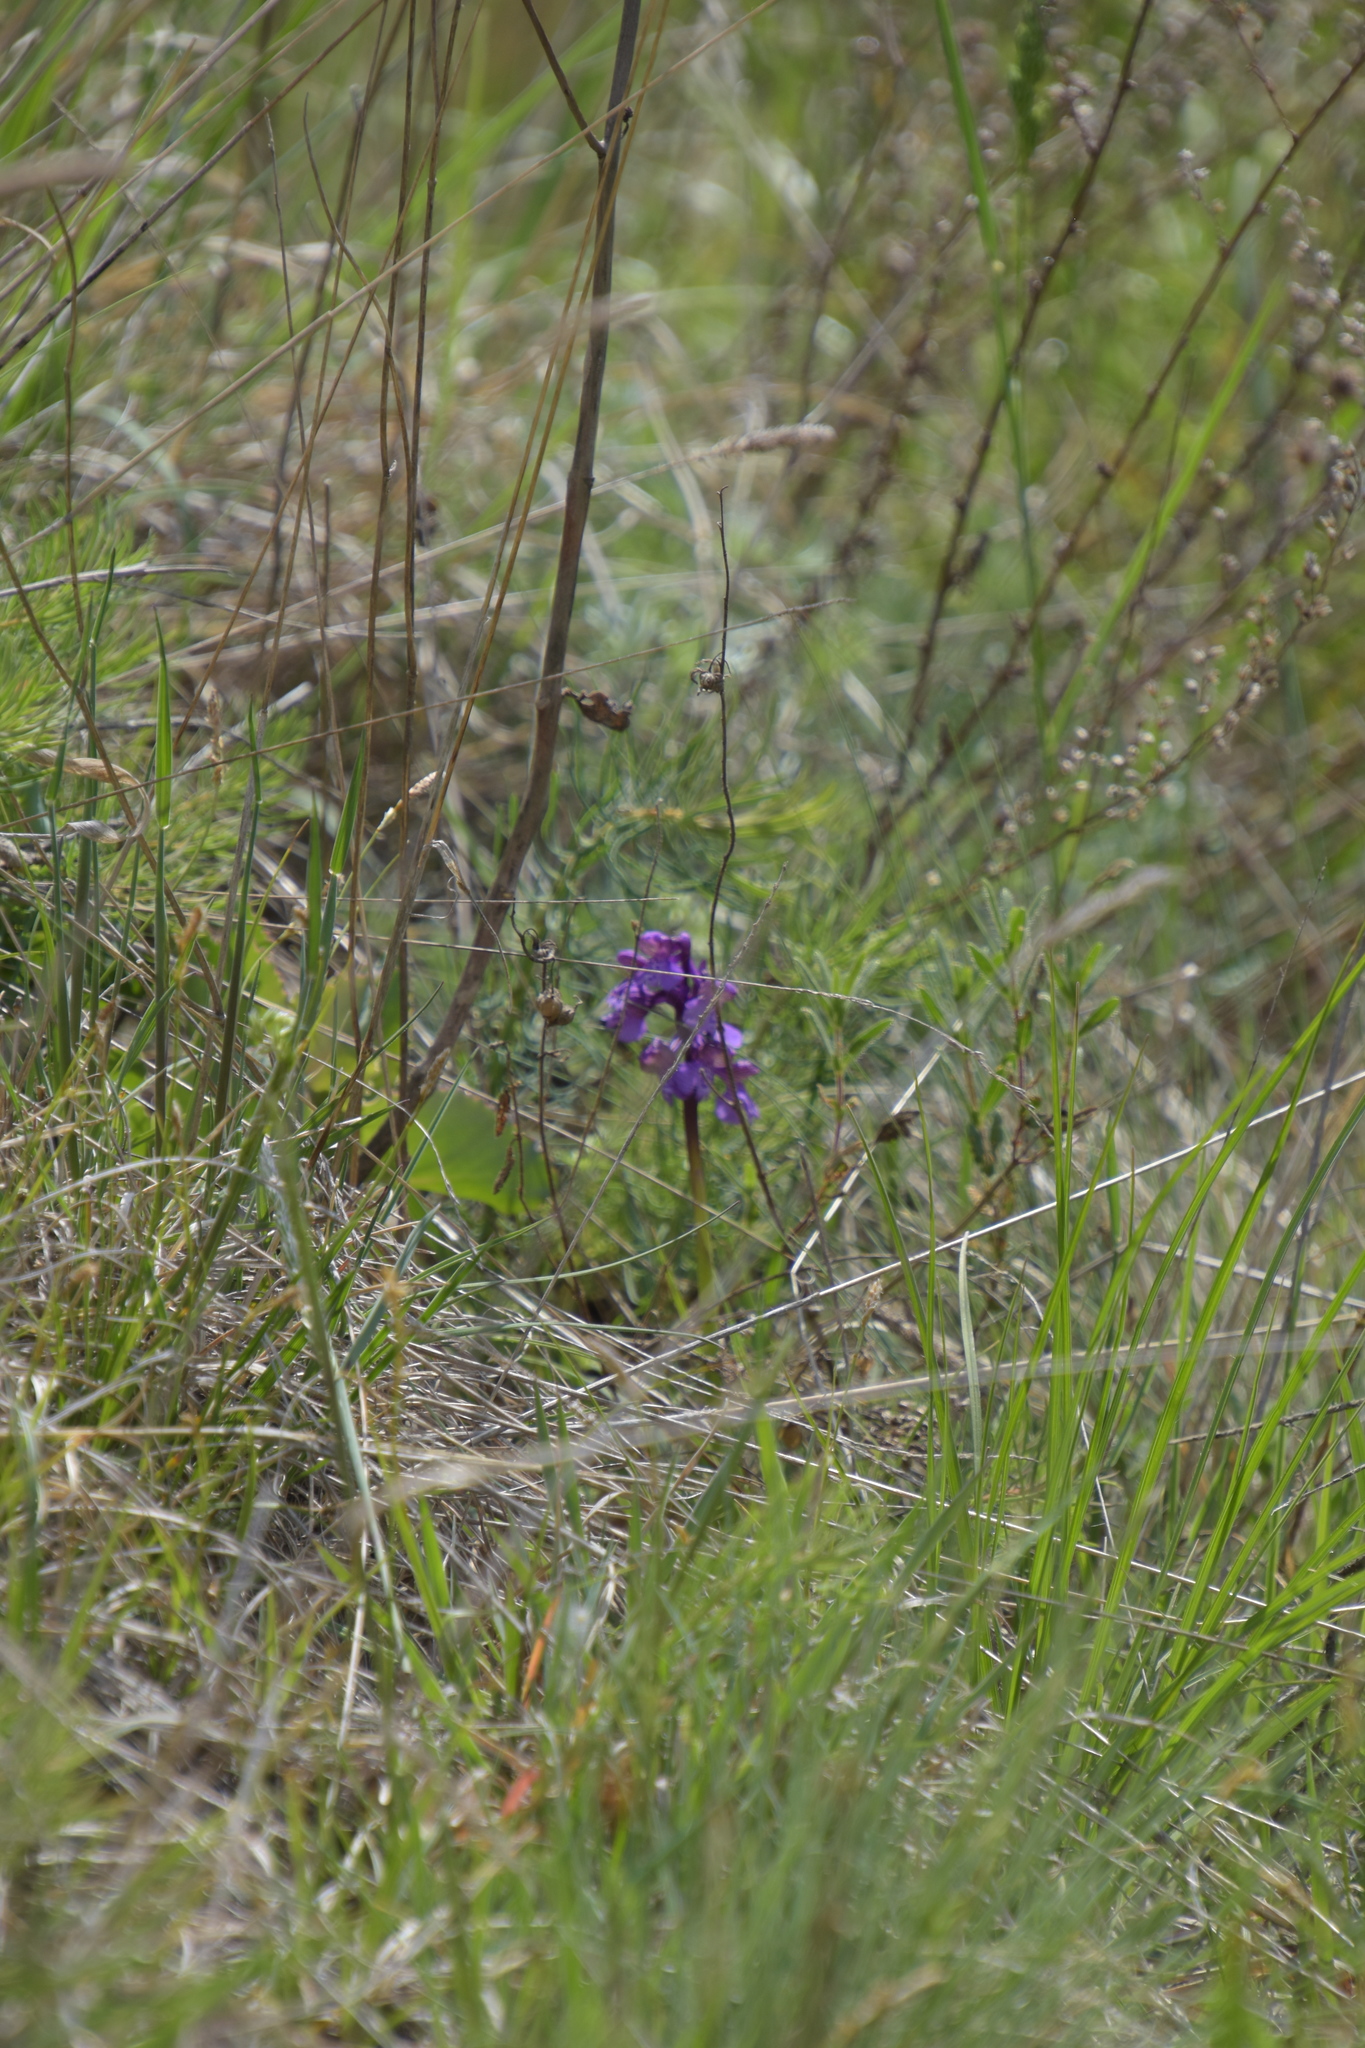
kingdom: Plantae
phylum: Tracheophyta
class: Liliopsida
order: Asparagales
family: Orchidaceae
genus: Anacamptis
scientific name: Anacamptis morio
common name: Green-winged orchid
